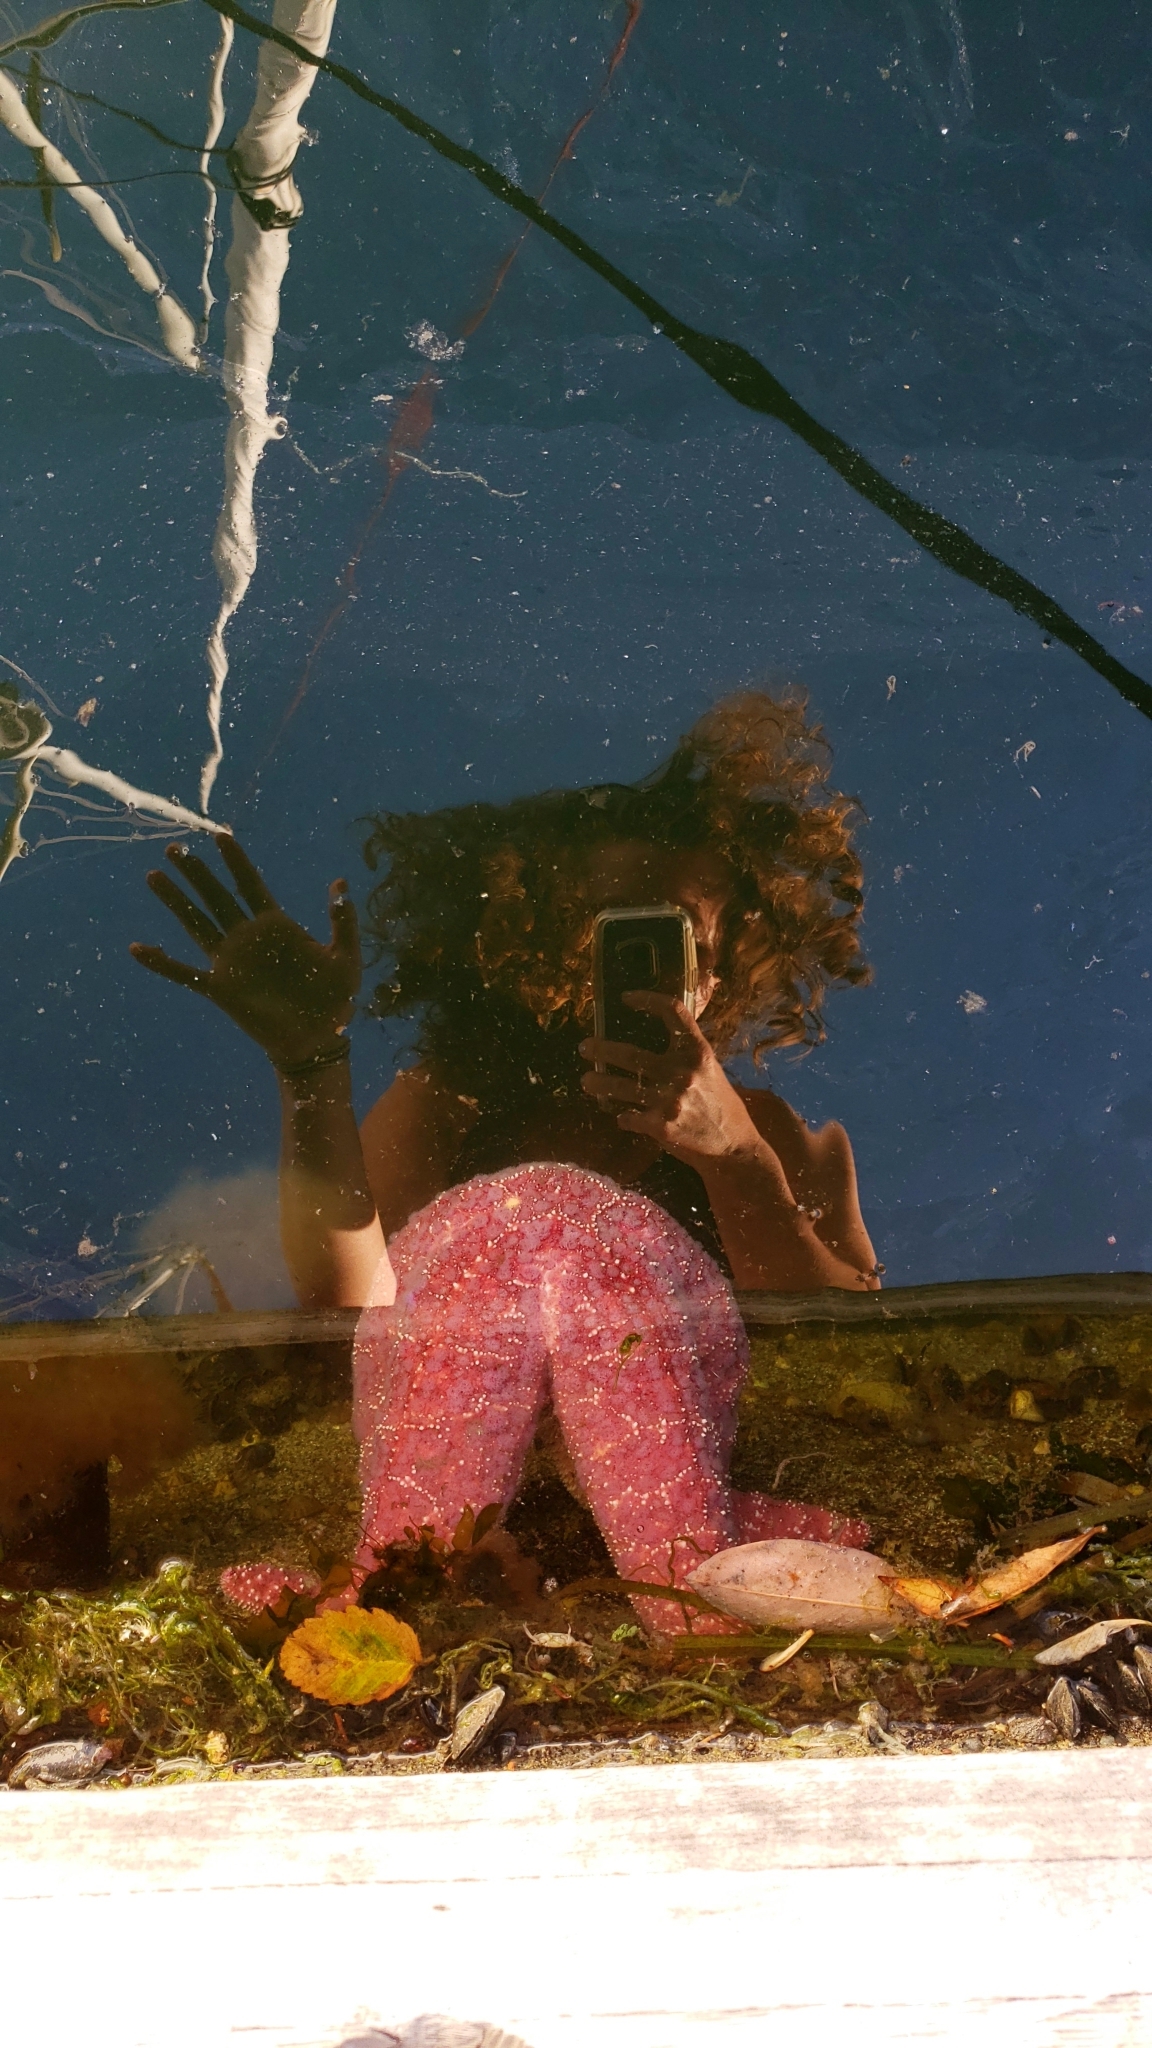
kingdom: Animalia
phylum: Echinodermata
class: Asteroidea
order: Forcipulatida
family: Asteriidae
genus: Pisaster
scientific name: Pisaster ochraceus
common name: Ochre stars
